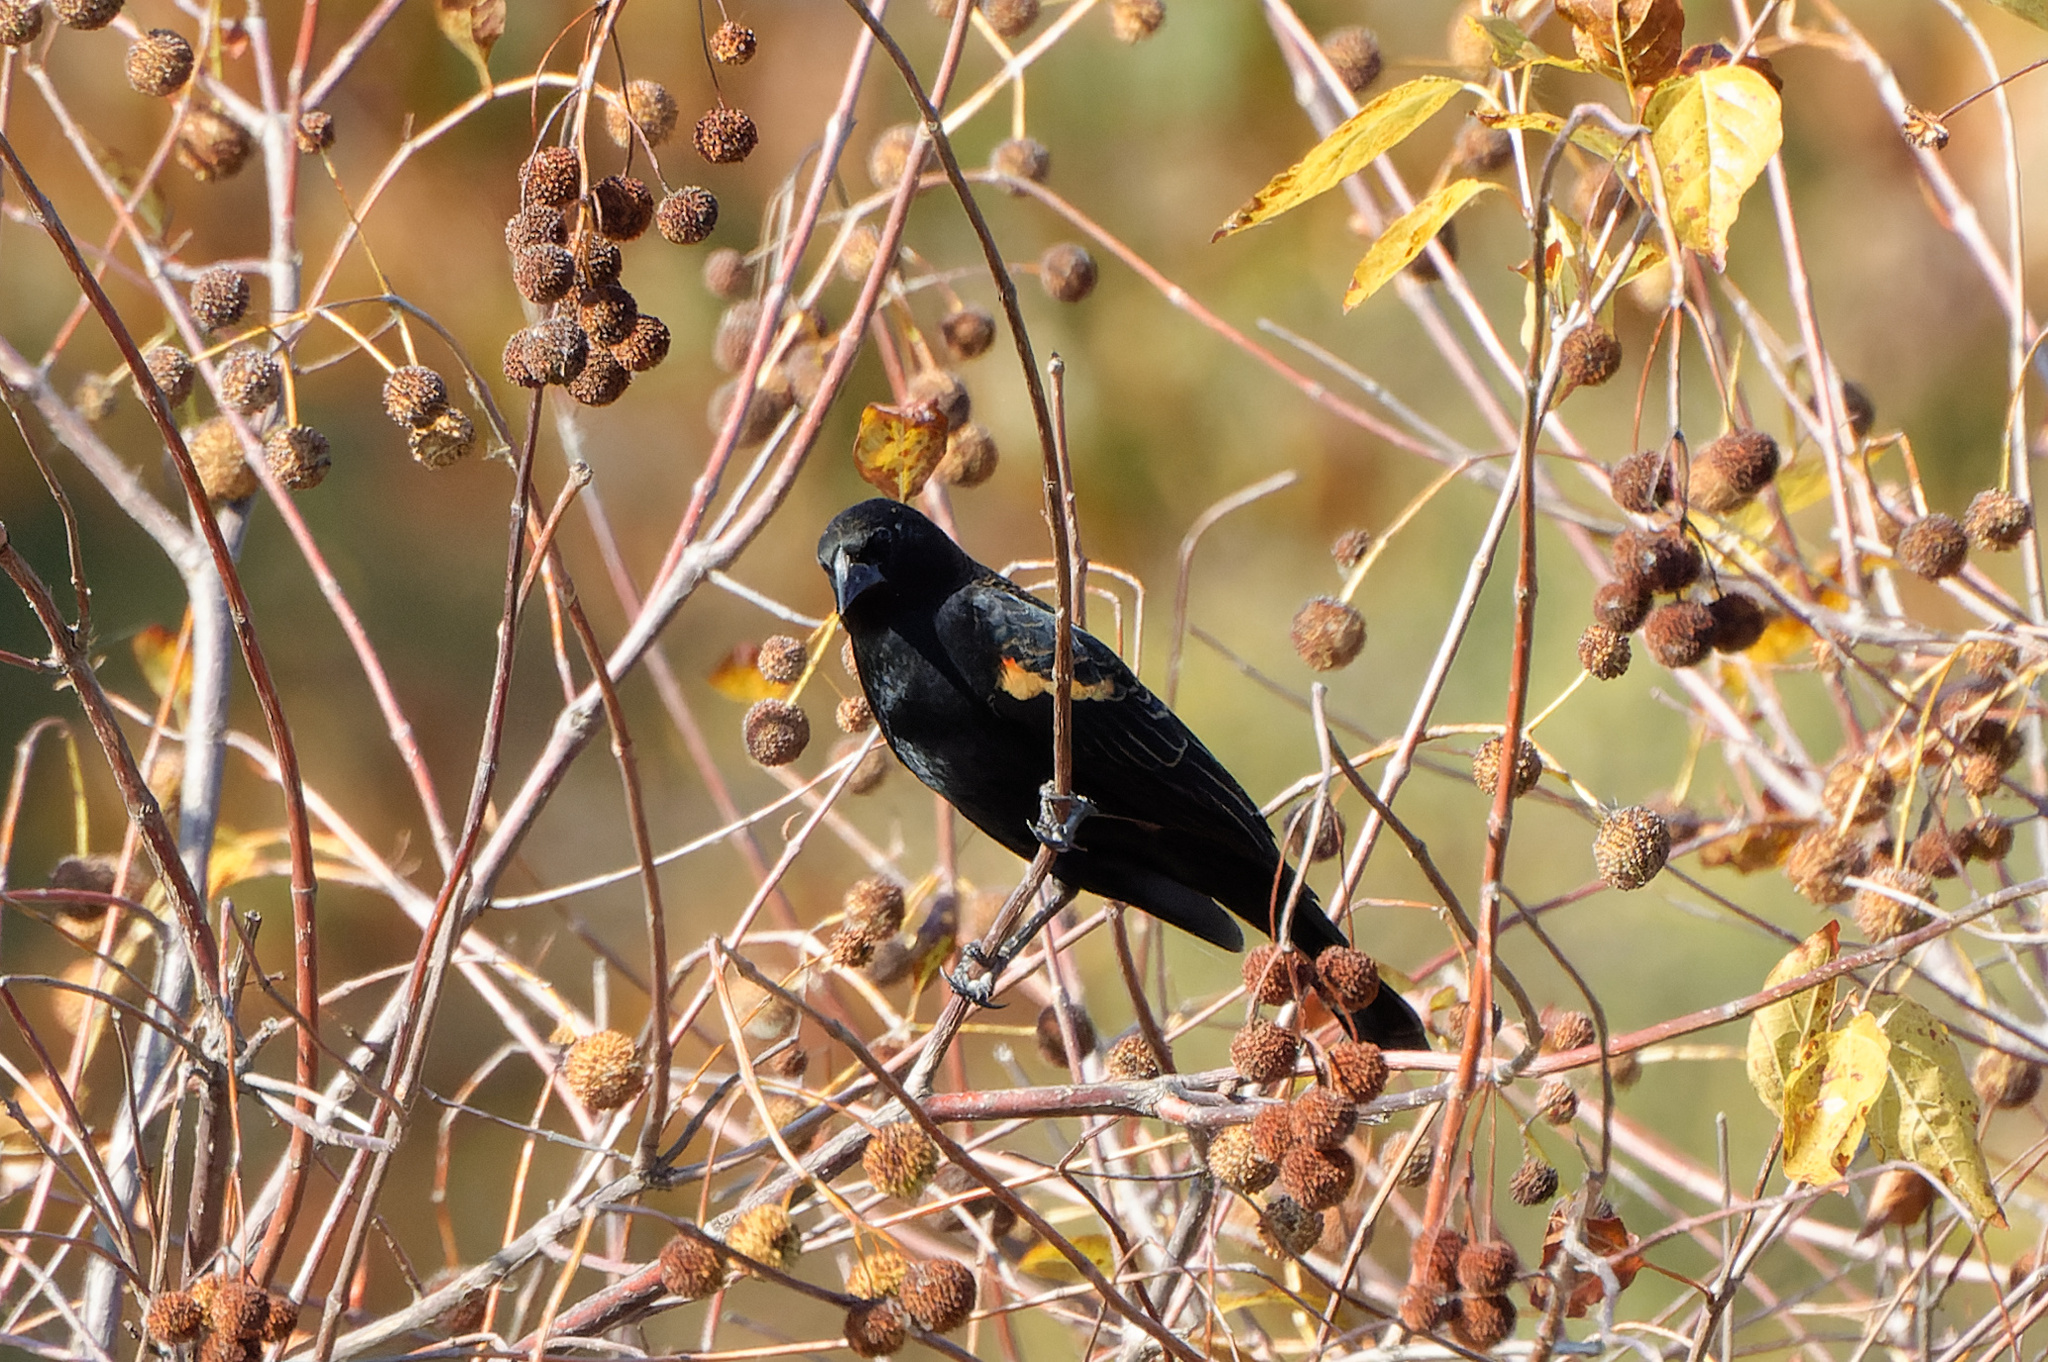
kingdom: Animalia
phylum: Chordata
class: Aves
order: Passeriformes
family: Icteridae
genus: Agelaius
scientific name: Agelaius phoeniceus
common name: Red-winged blackbird
